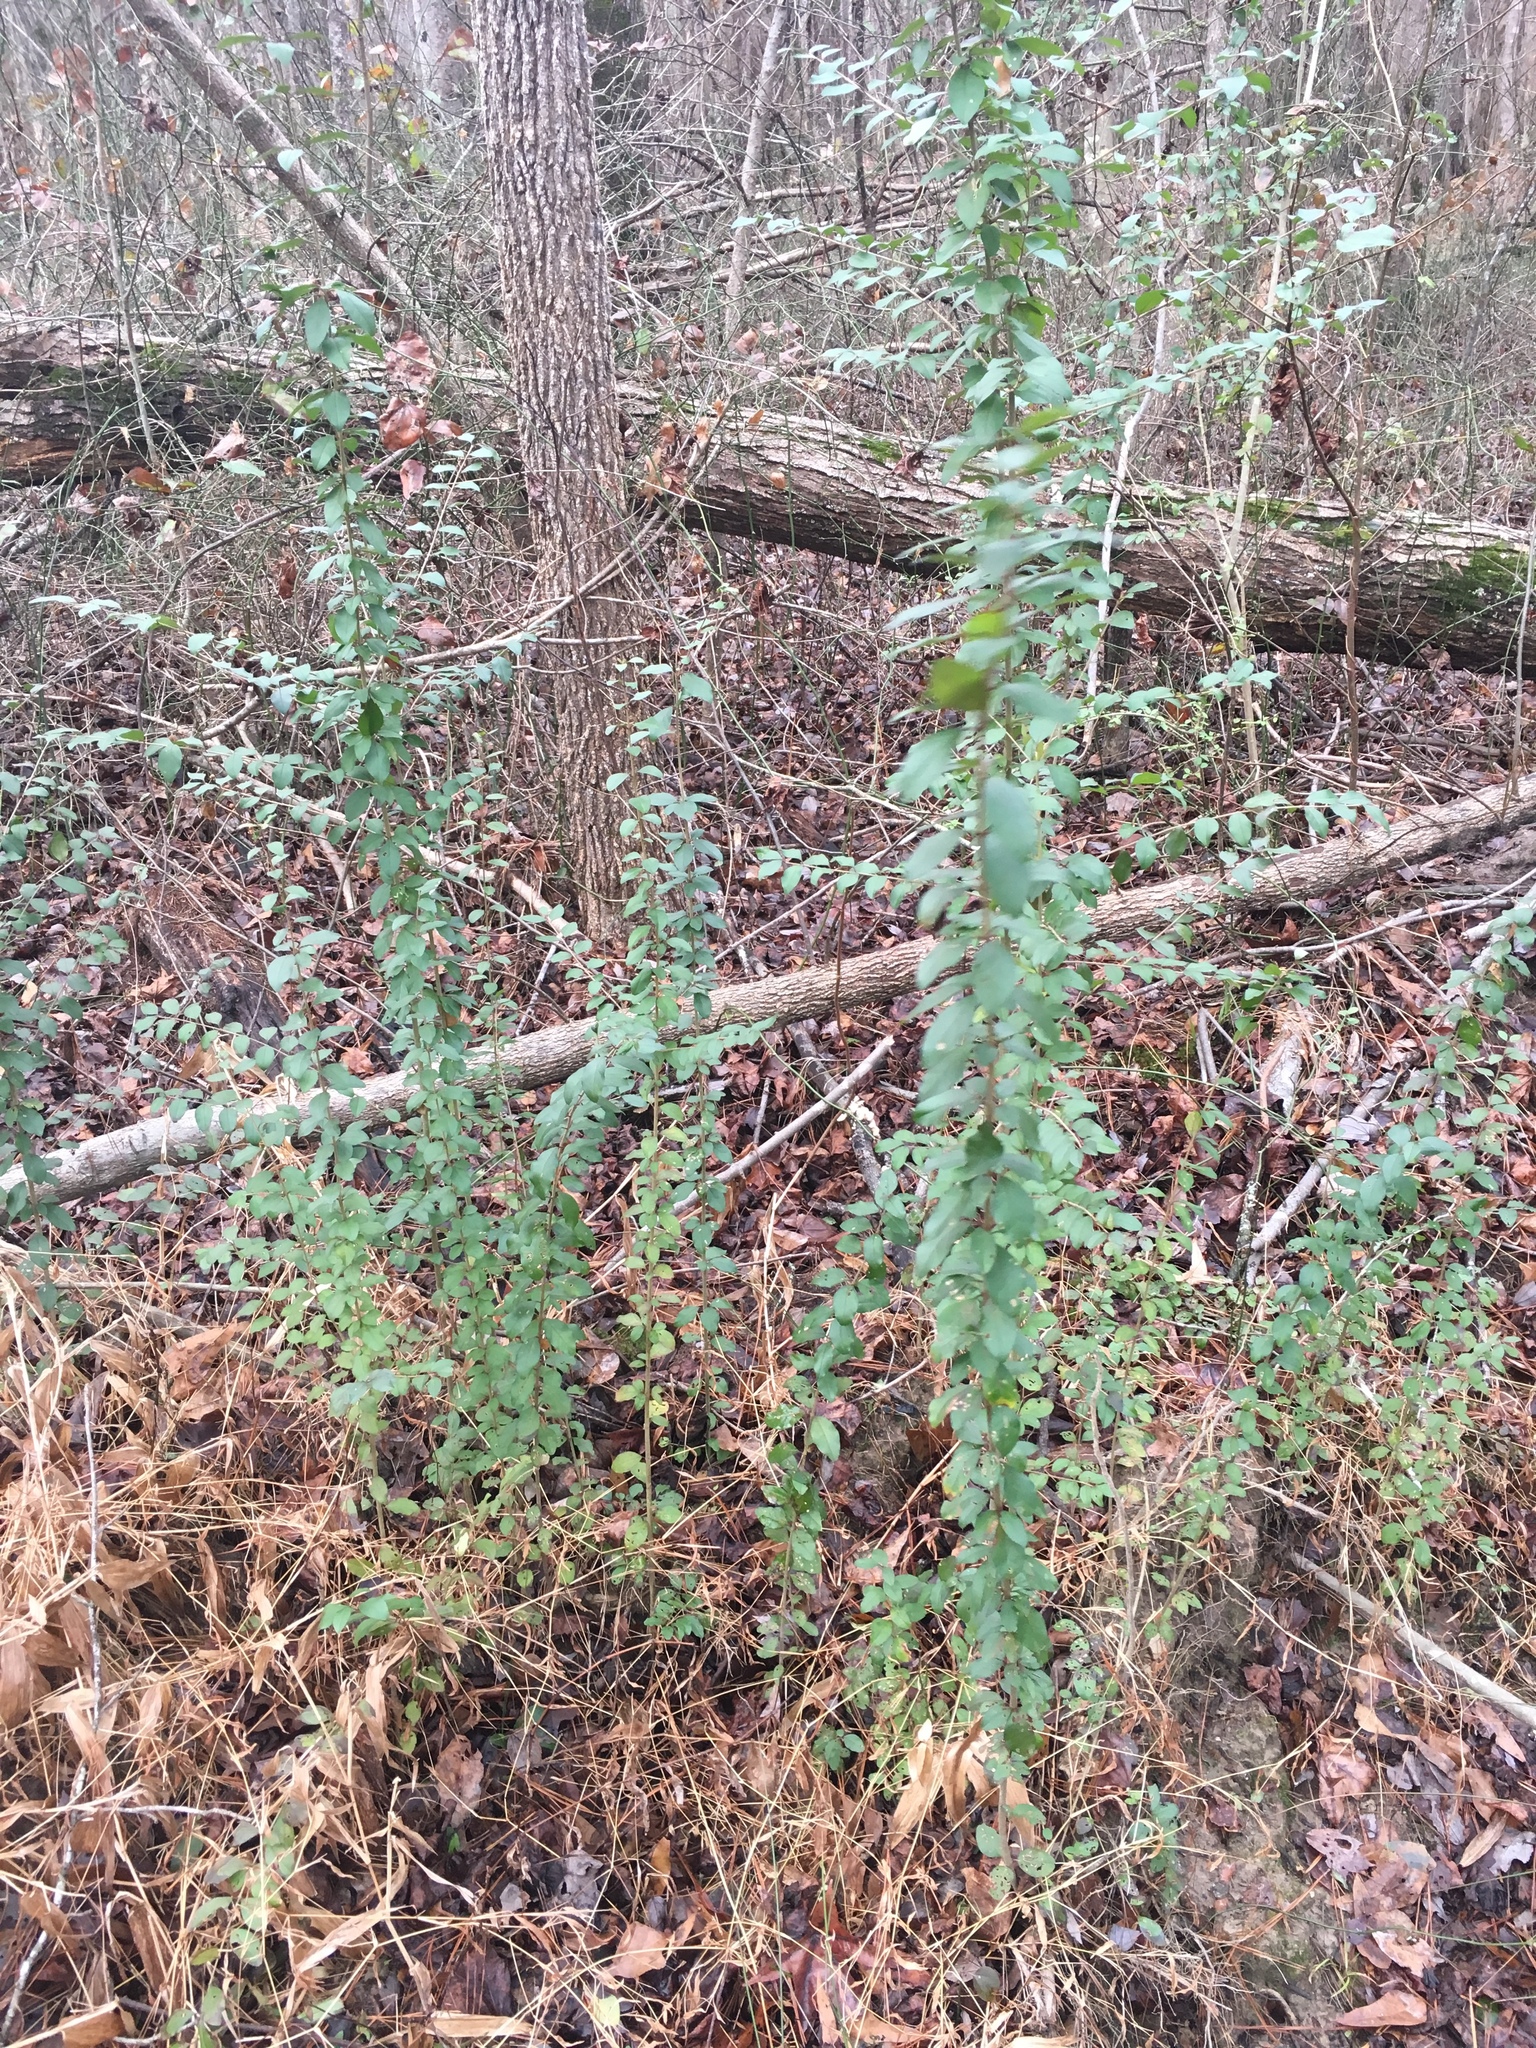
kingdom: Plantae
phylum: Tracheophyta
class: Magnoliopsida
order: Lamiales
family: Oleaceae
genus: Ligustrum
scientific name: Ligustrum sinense
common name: Chinese privet
